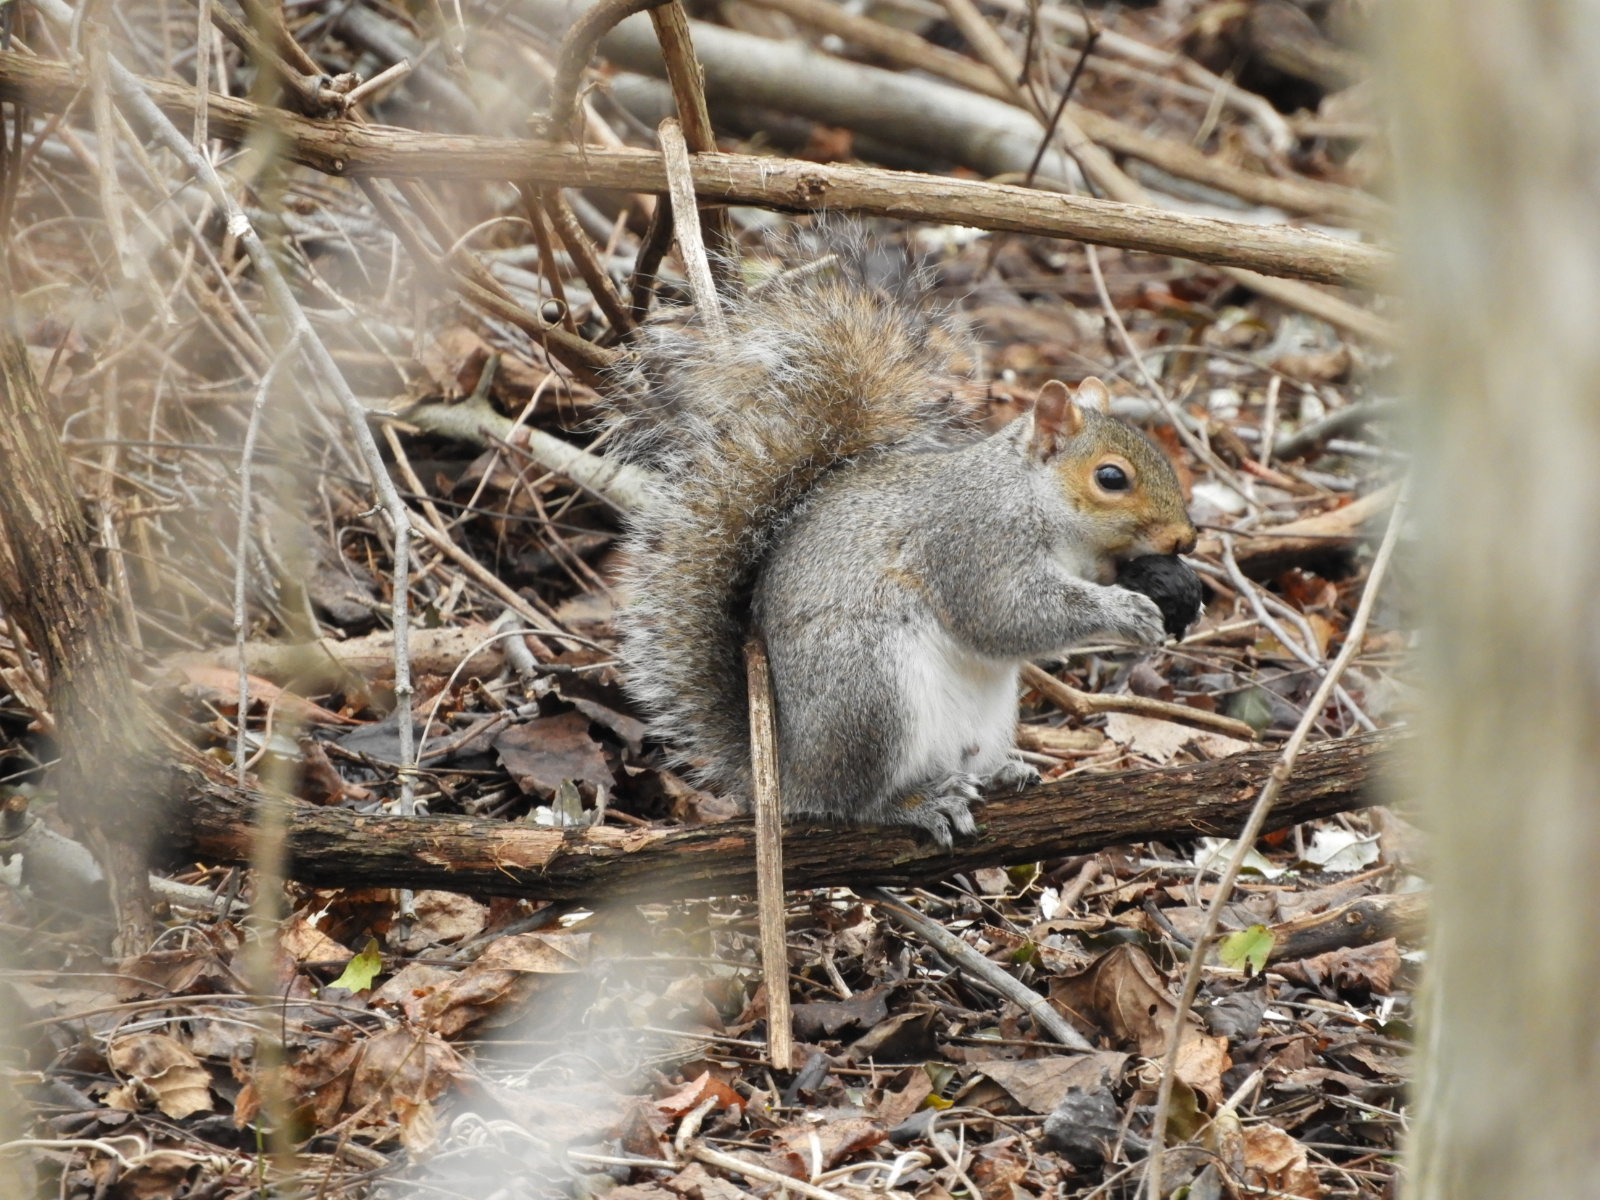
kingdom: Animalia
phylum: Chordata
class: Mammalia
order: Rodentia
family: Sciuridae
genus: Sciurus
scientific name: Sciurus carolinensis
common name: Eastern gray squirrel
